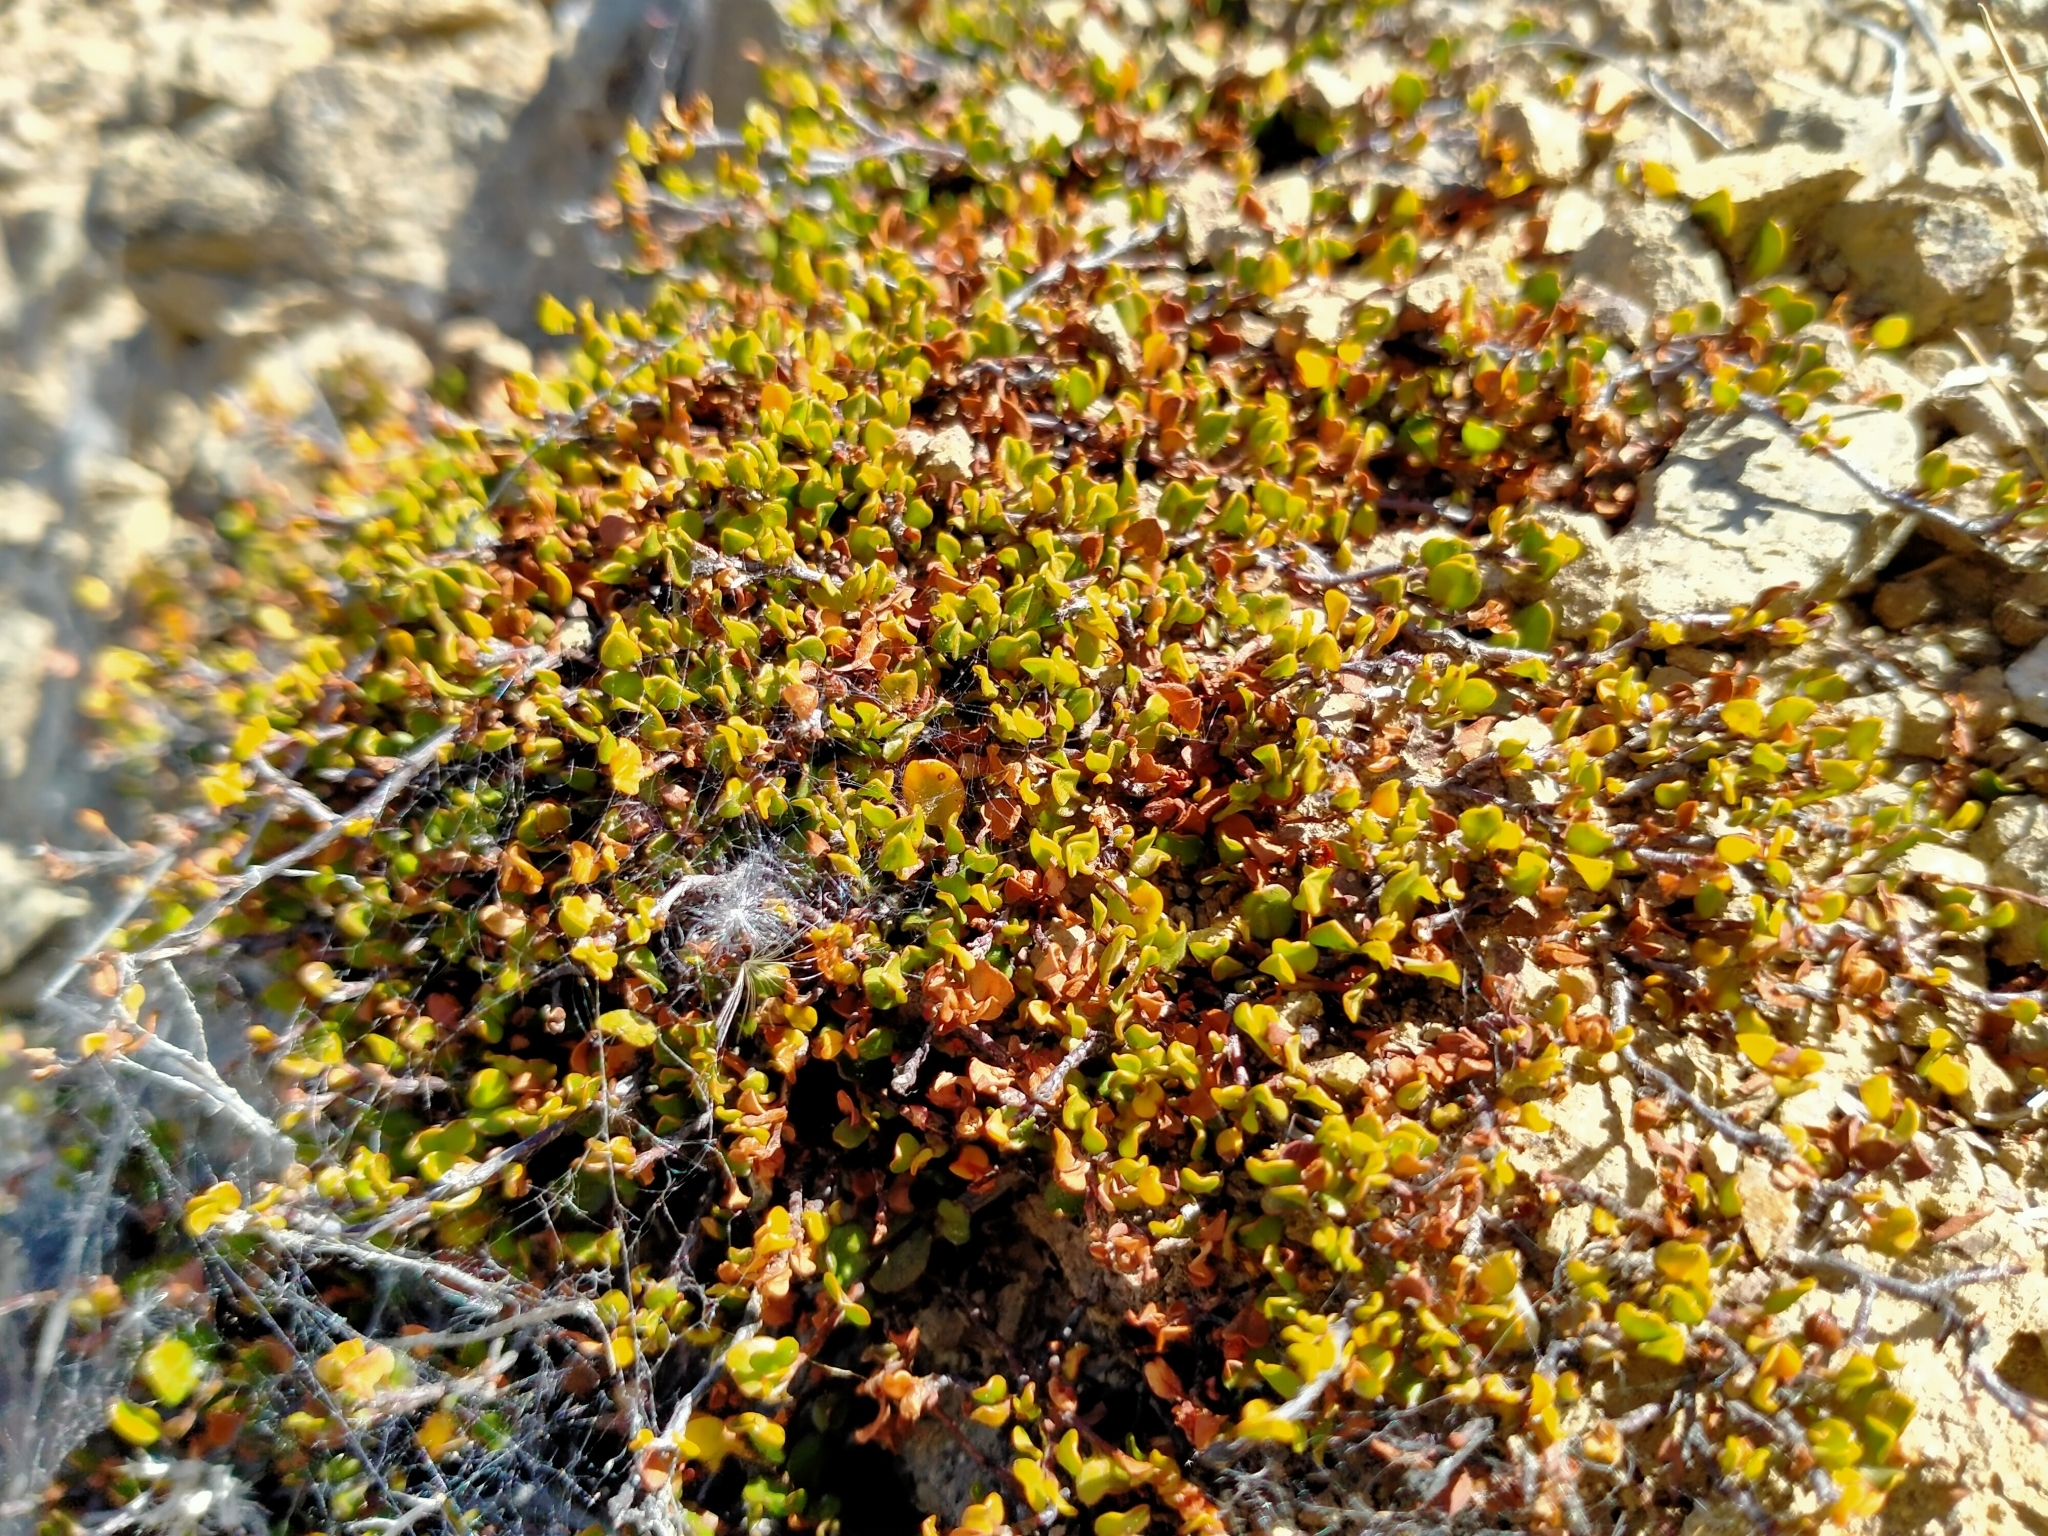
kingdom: Plantae
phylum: Tracheophyta
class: Magnoliopsida
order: Caryophyllales
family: Polygonaceae
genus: Muehlenbeckia
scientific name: Muehlenbeckia axillaris
